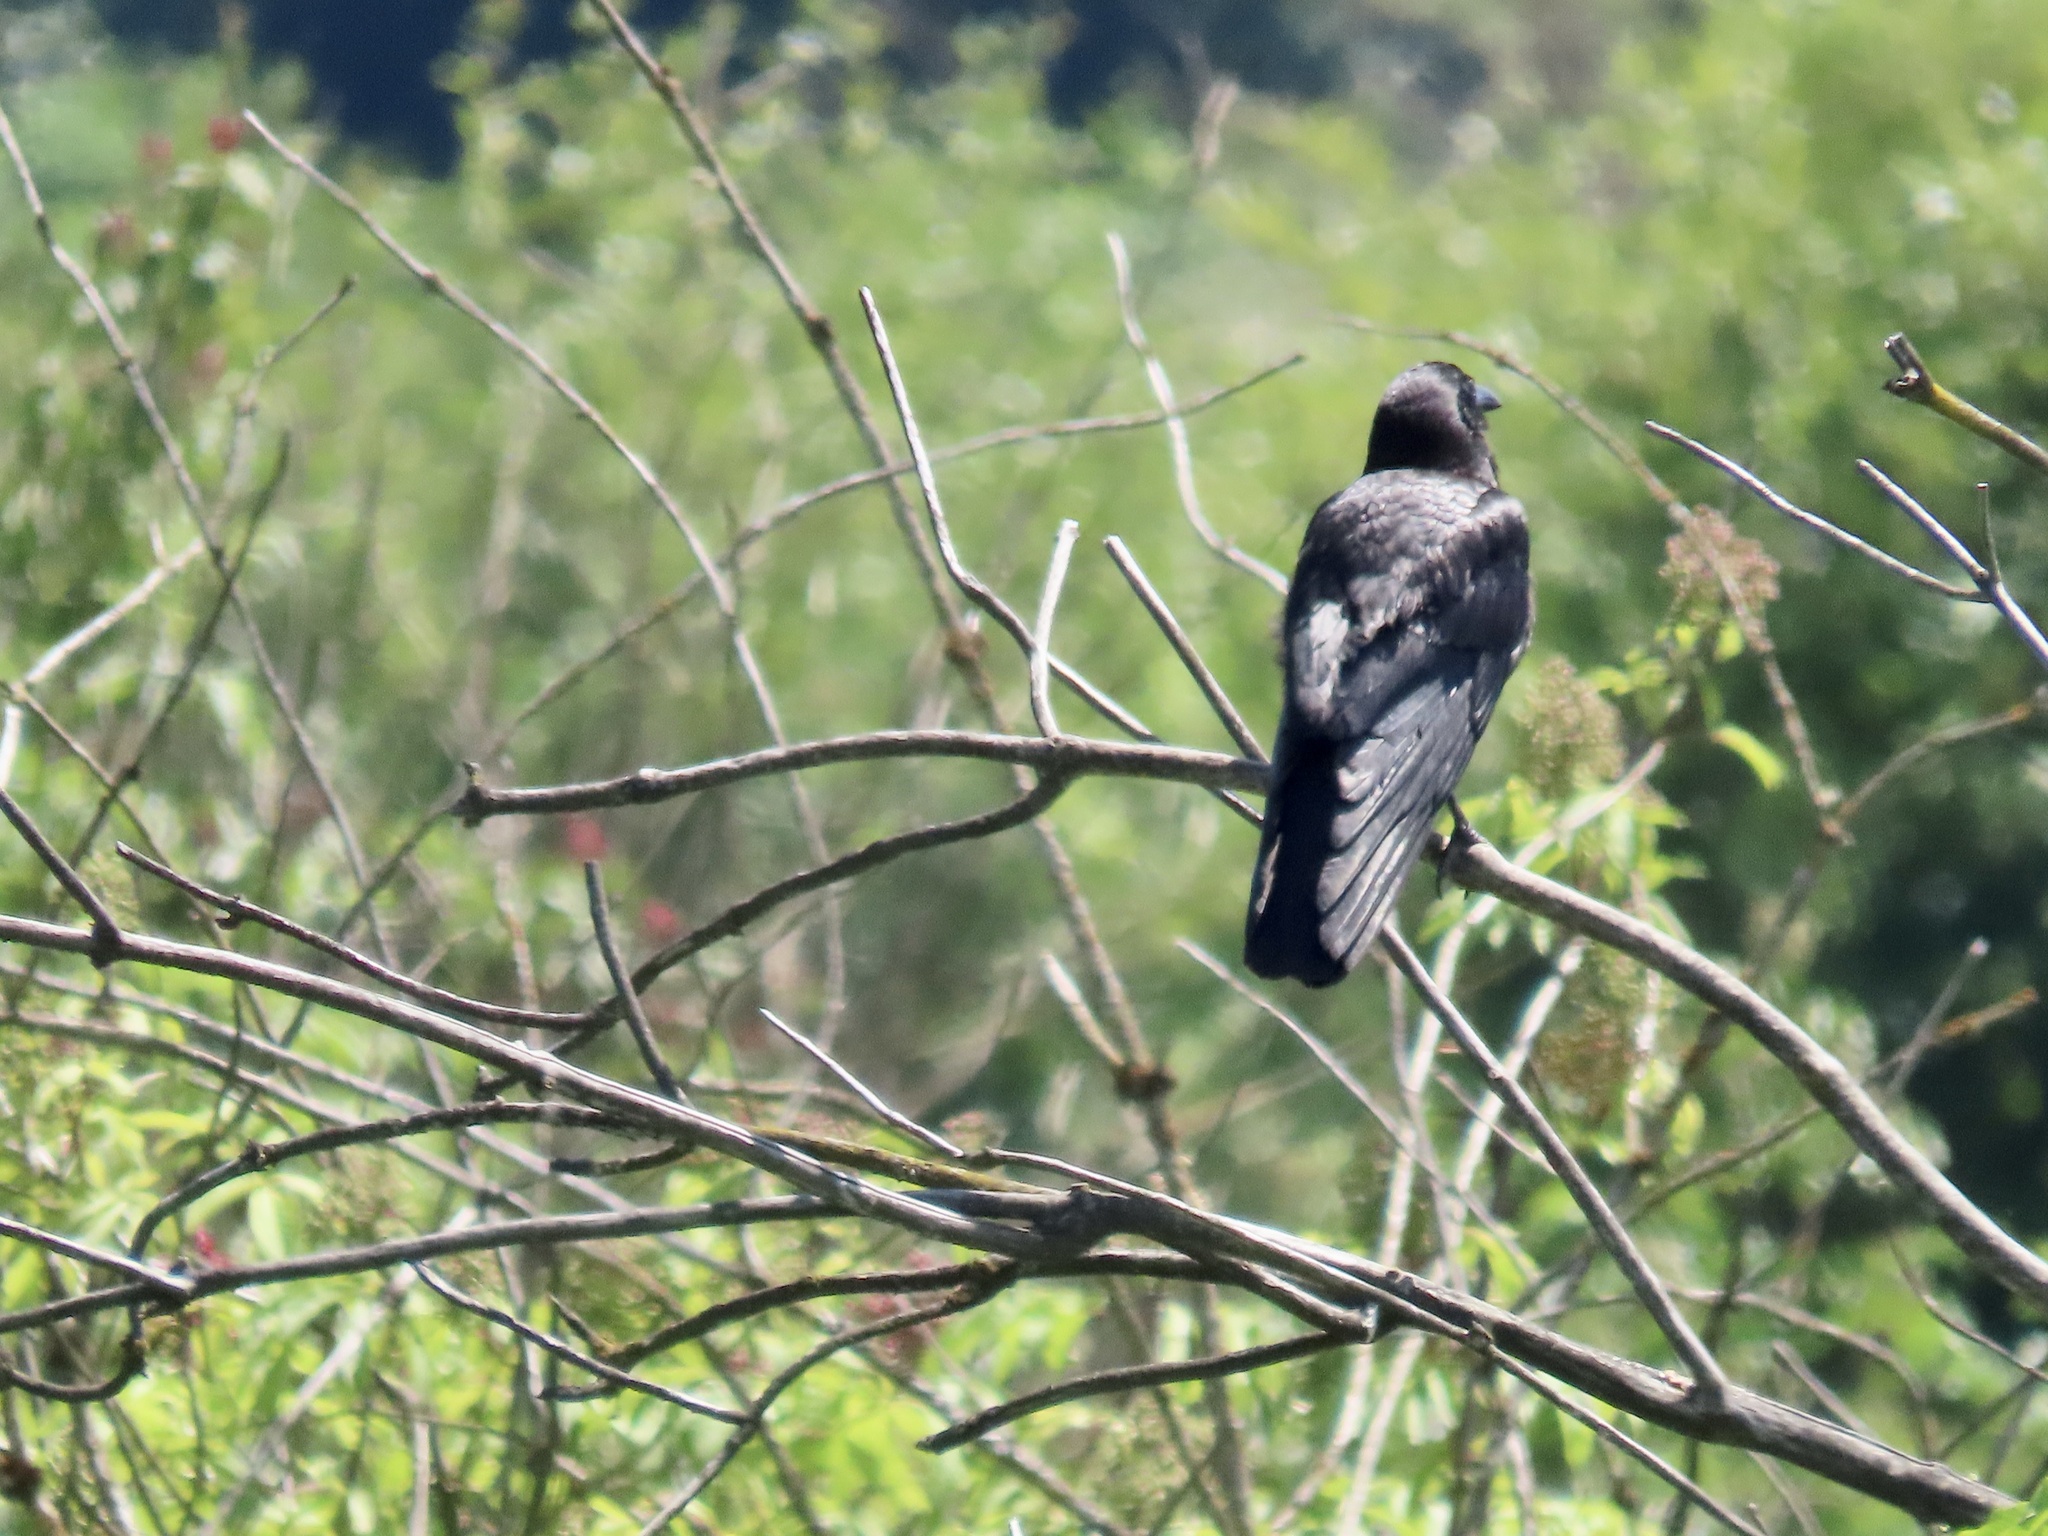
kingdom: Animalia
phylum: Chordata
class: Aves
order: Passeriformes
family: Corvidae
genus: Corvus
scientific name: Corvus brachyrhynchos
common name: American crow
